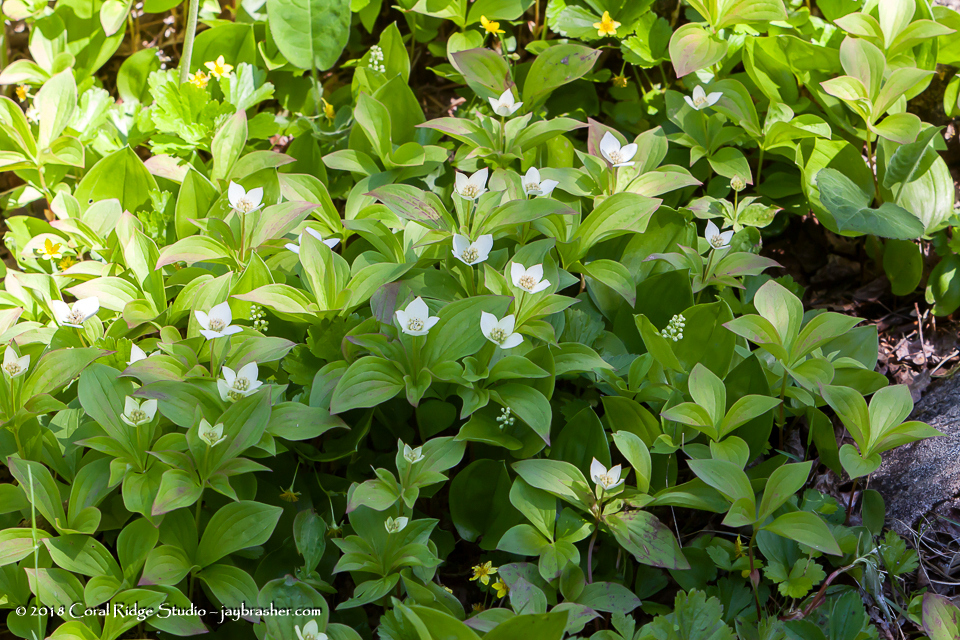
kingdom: Plantae
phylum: Tracheophyta
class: Magnoliopsida
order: Cornales
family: Cornaceae
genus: Cornus
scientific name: Cornus canadensis
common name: Creeping dogwood
